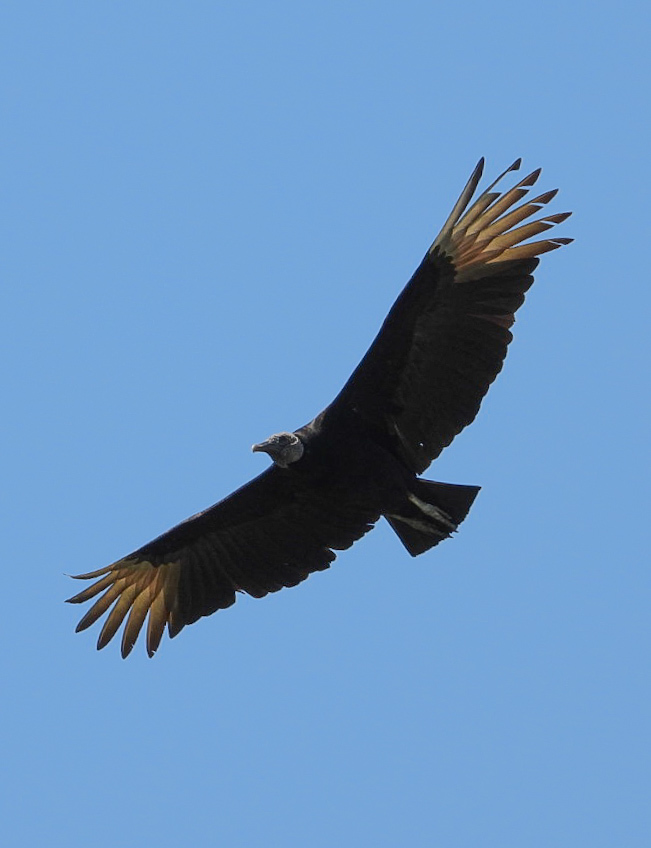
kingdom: Animalia
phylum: Chordata
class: Aves
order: Accipitriformes
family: Cathartidae
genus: Coragyps
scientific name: Coragyps atratus
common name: Black vulture
